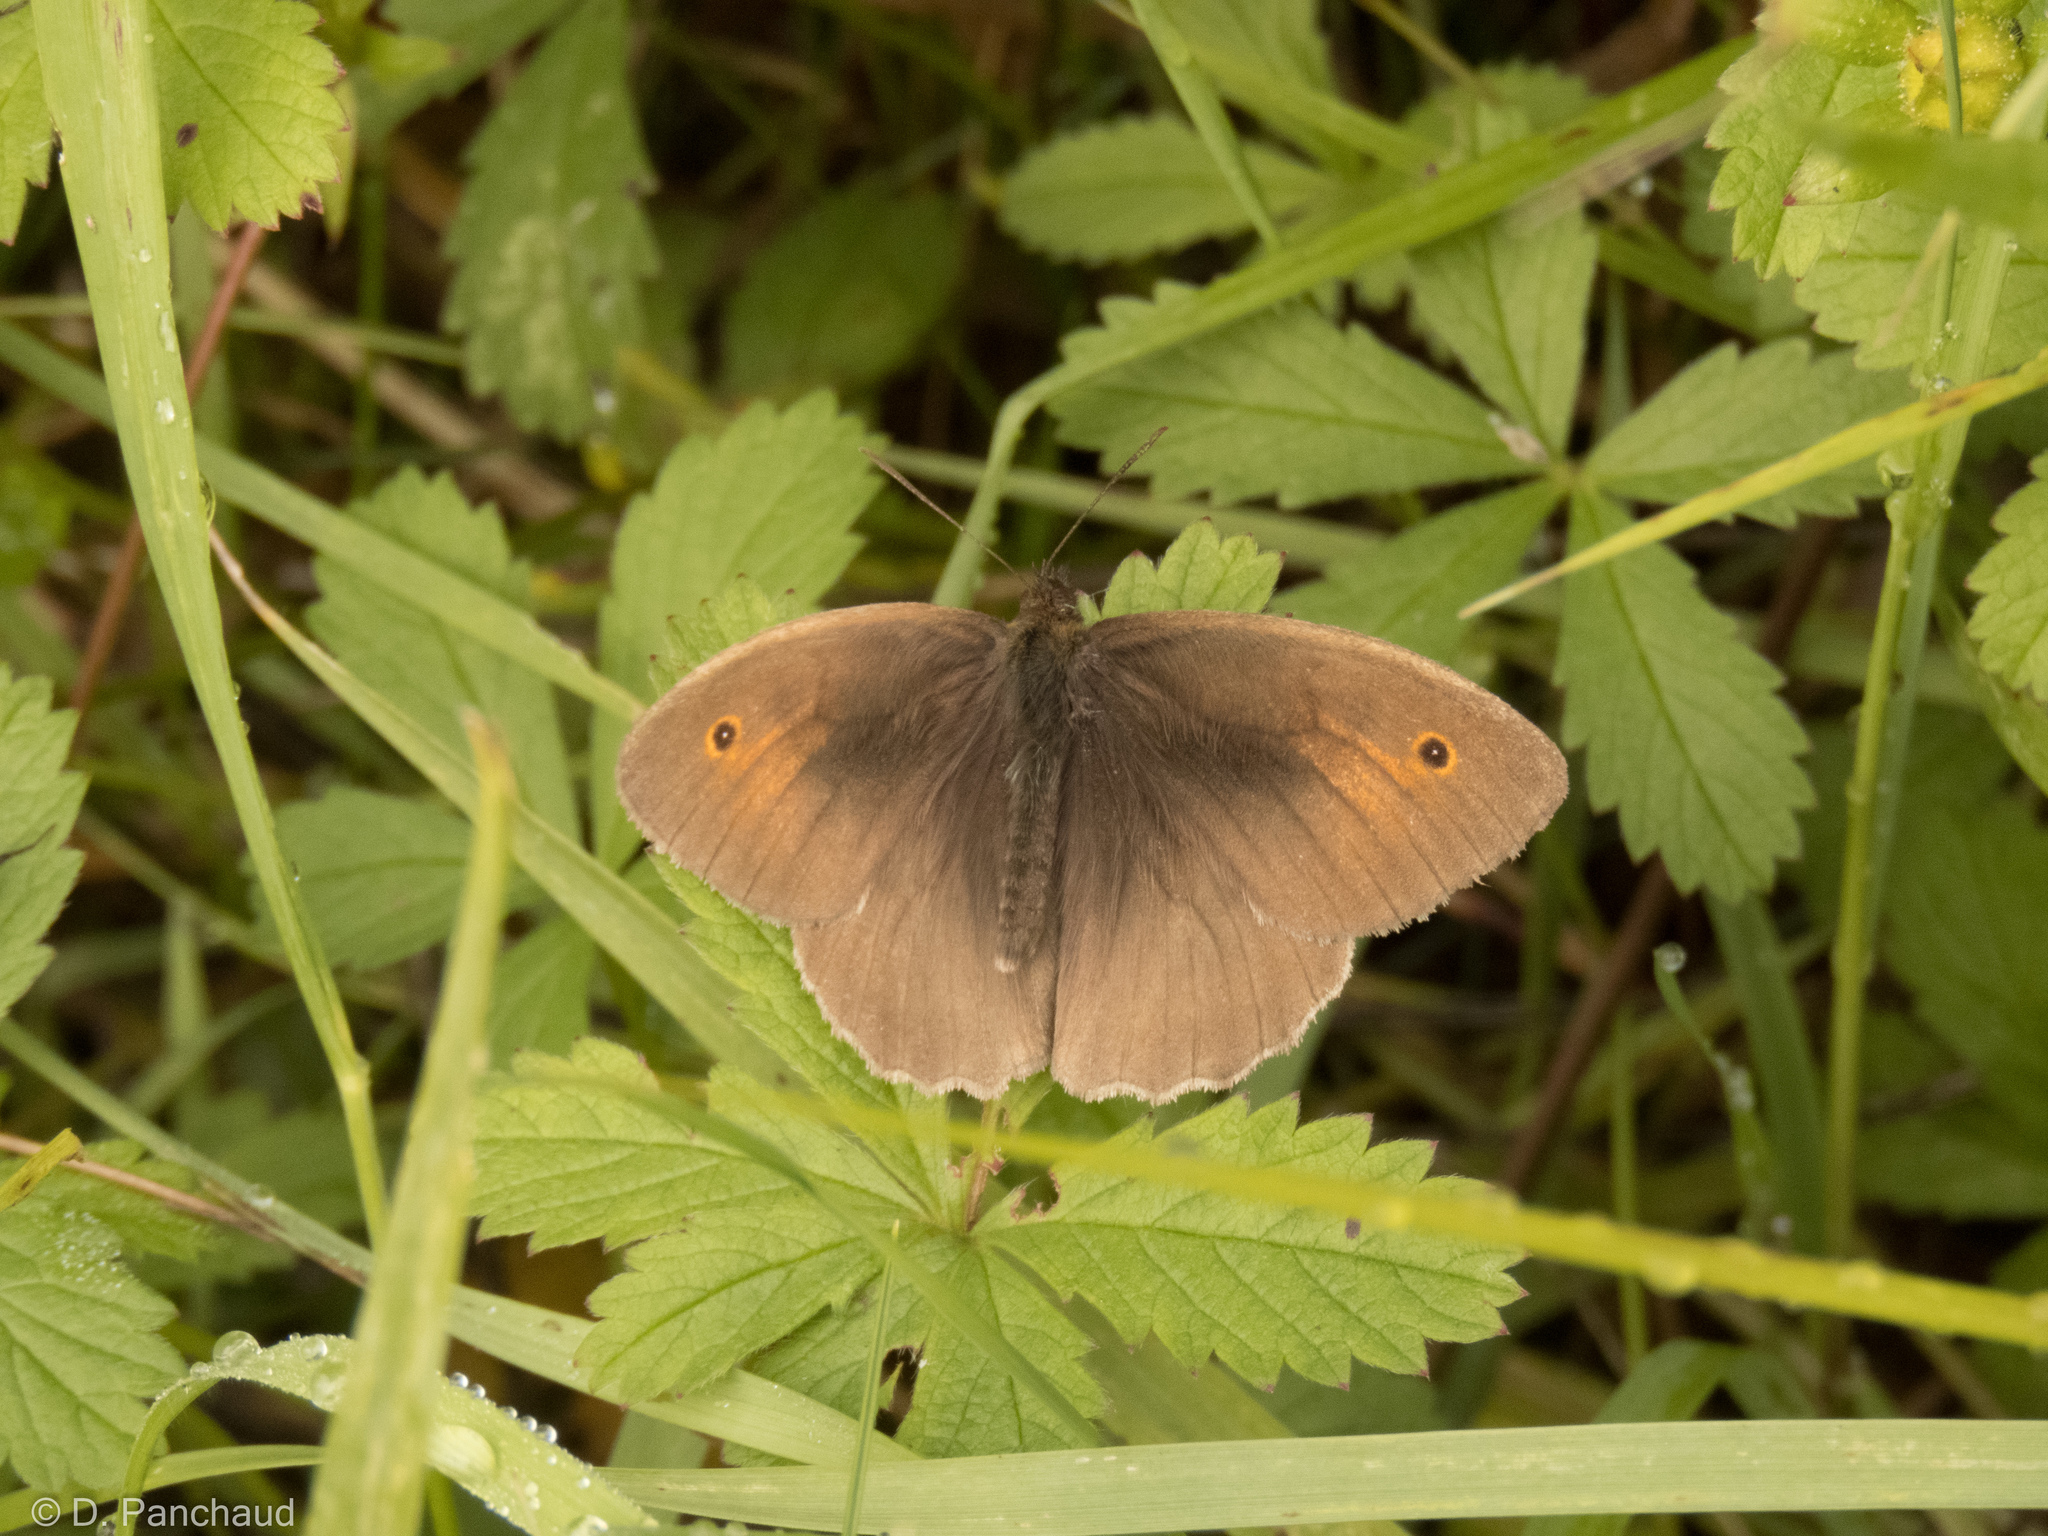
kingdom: Animalia
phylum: Arthropoda
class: Insecta
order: Lepidoptera
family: Nymphalidae
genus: Maniola
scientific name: Maniola jurtina
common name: Meadow brown
